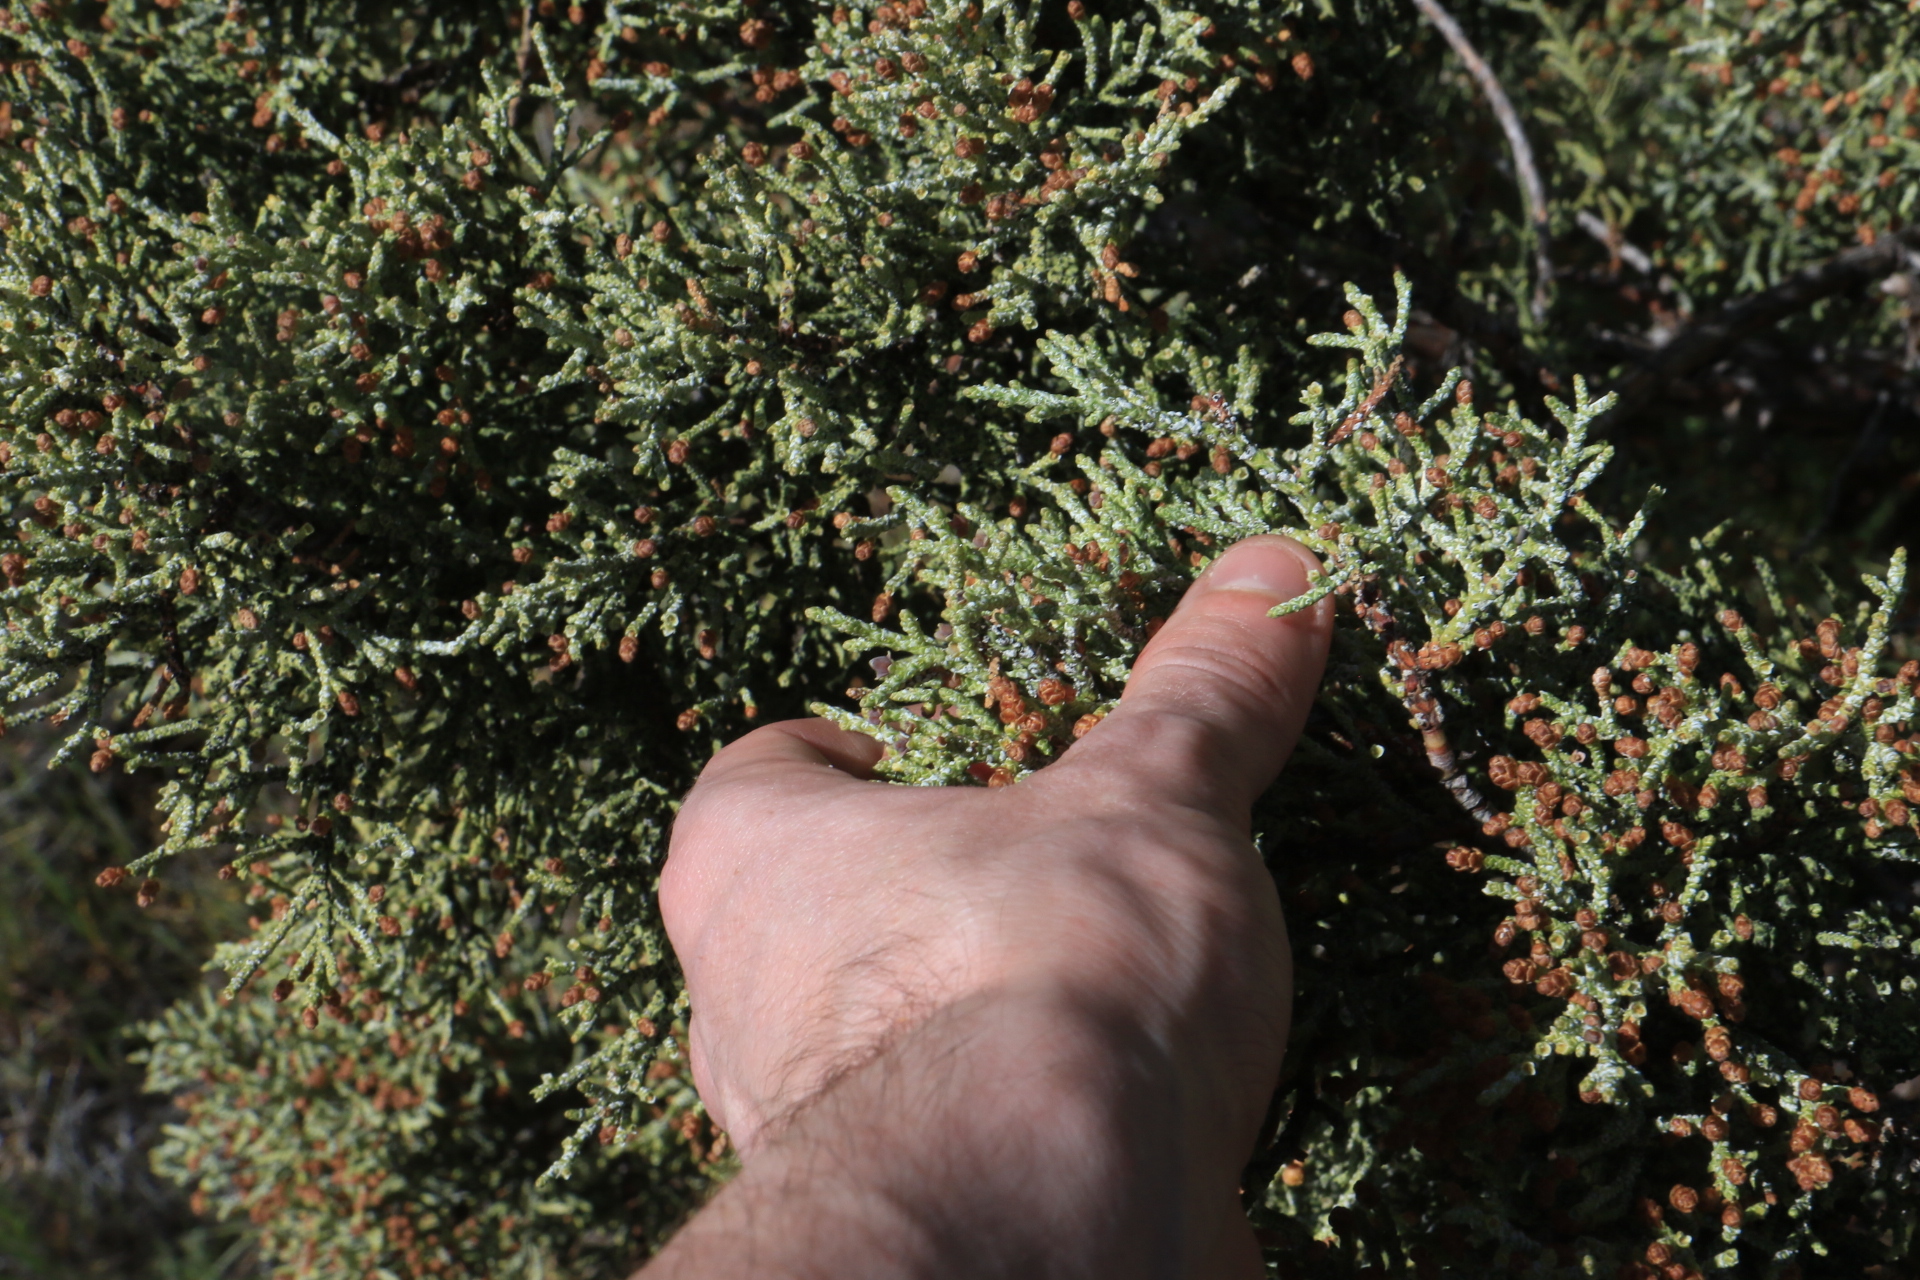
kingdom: Plantae
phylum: Tracheophyta
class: Pinopsida
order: Pinales
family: Cupressaceae
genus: Juniperus
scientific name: Juniperus occidentalis
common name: Western juniper
